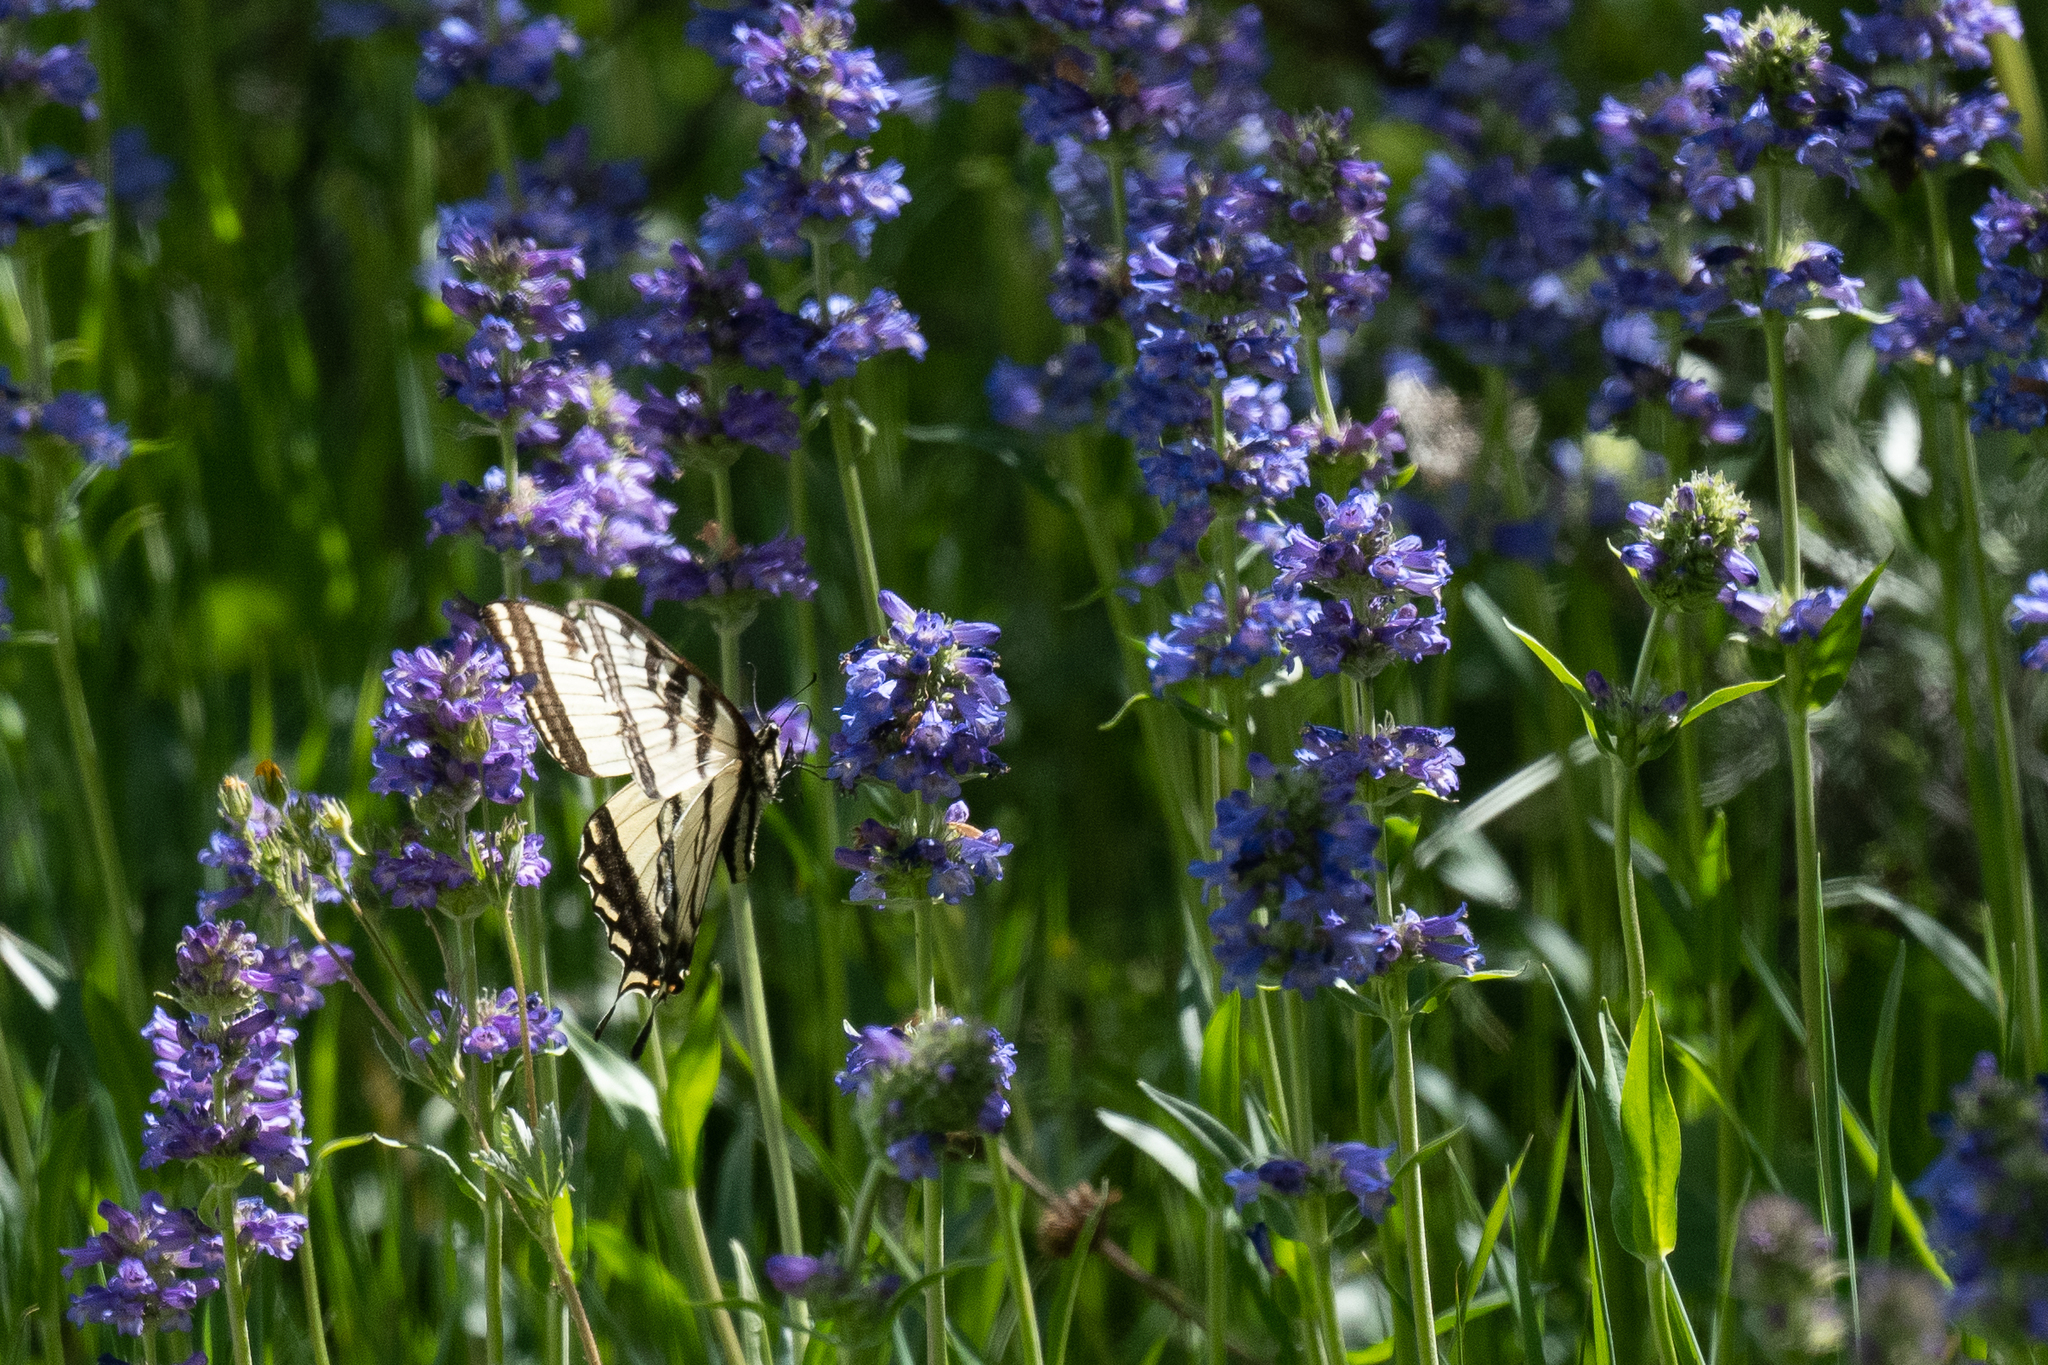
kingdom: Animalia
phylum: Arthropoda
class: Insecta
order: Lepidoptera
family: Papilionidae
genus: Papilio
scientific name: Papilio rutulus
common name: Western tiger swallowtail
